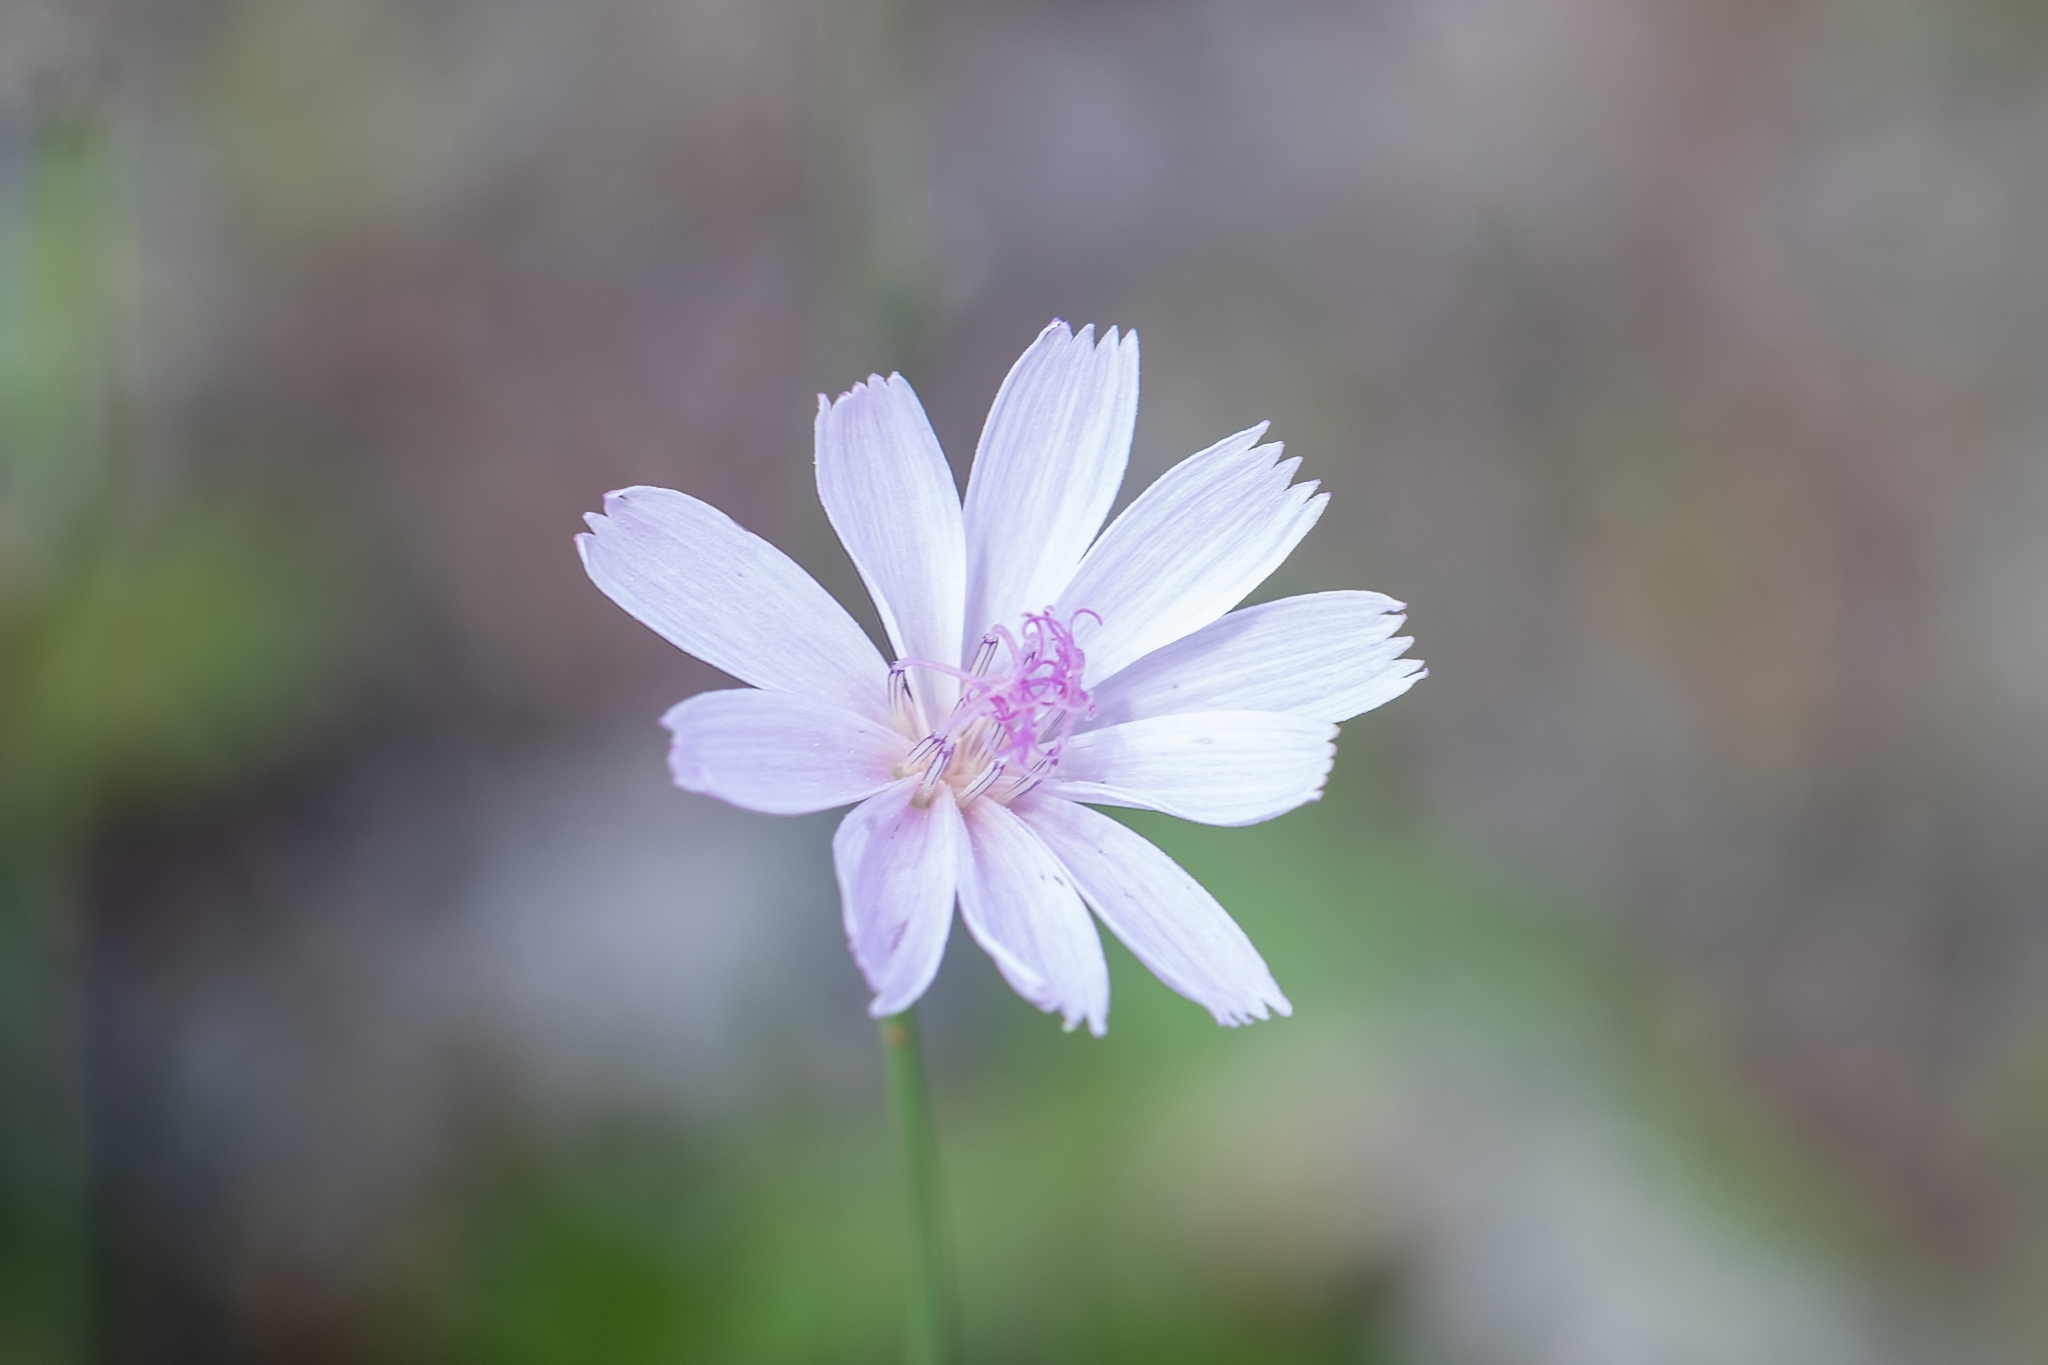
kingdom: Plantae
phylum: Tracheophyta
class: Magnoliopsida
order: Asterales
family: Asteraceae
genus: Lygodesmia
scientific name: Lygodesmia aphylla
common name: Rose-rush
